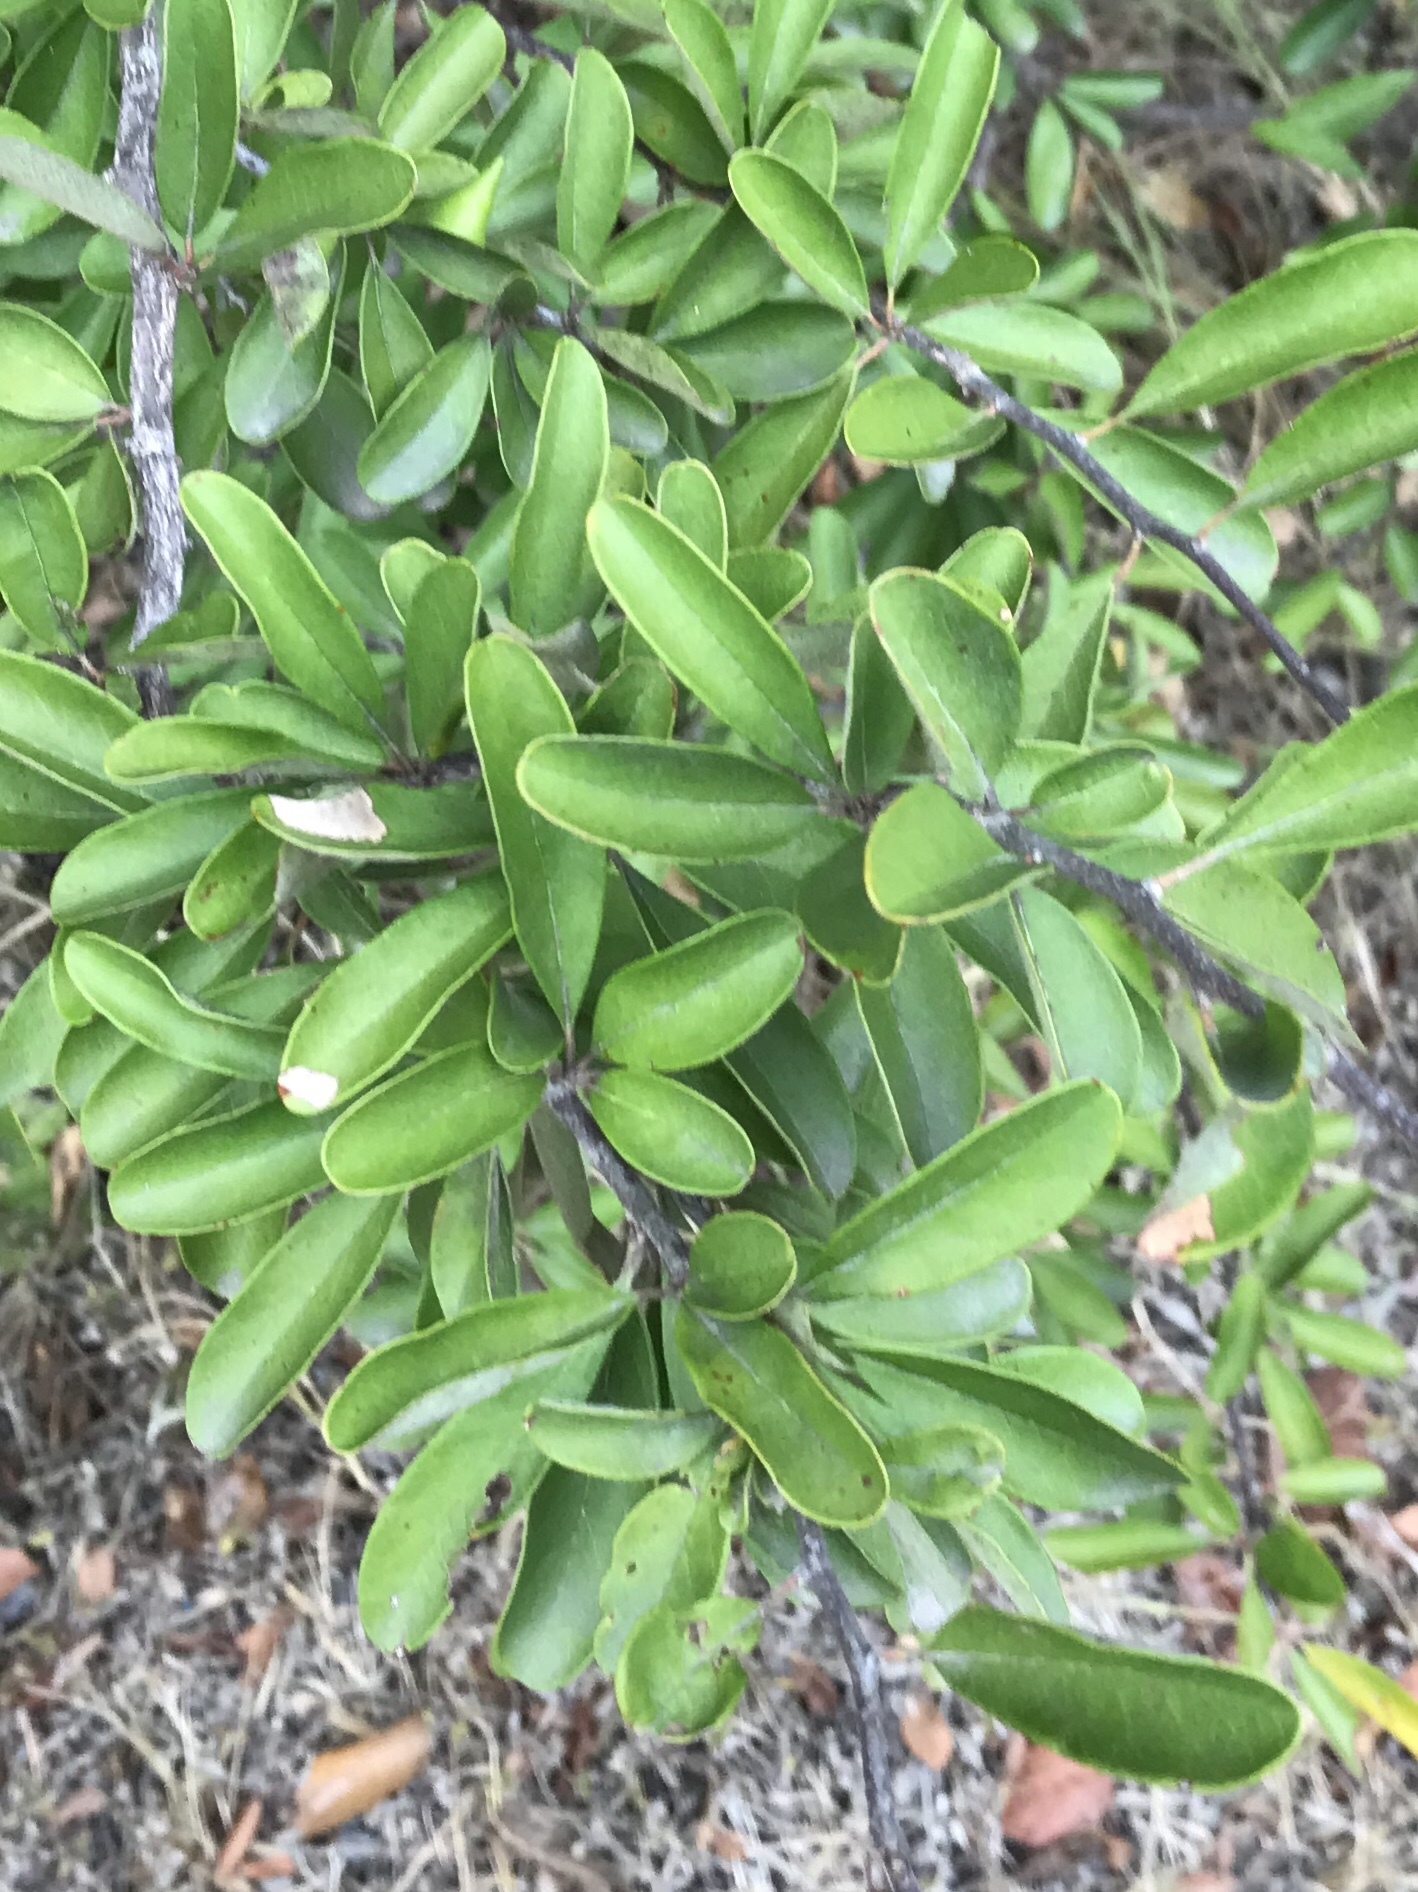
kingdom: Plantae
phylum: Tracheophyta
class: Magnoliopsida
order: Ericales
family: Sapotaceae
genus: Sideroxylon
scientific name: Sideroxylon lanuginosum
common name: Chittamwood
